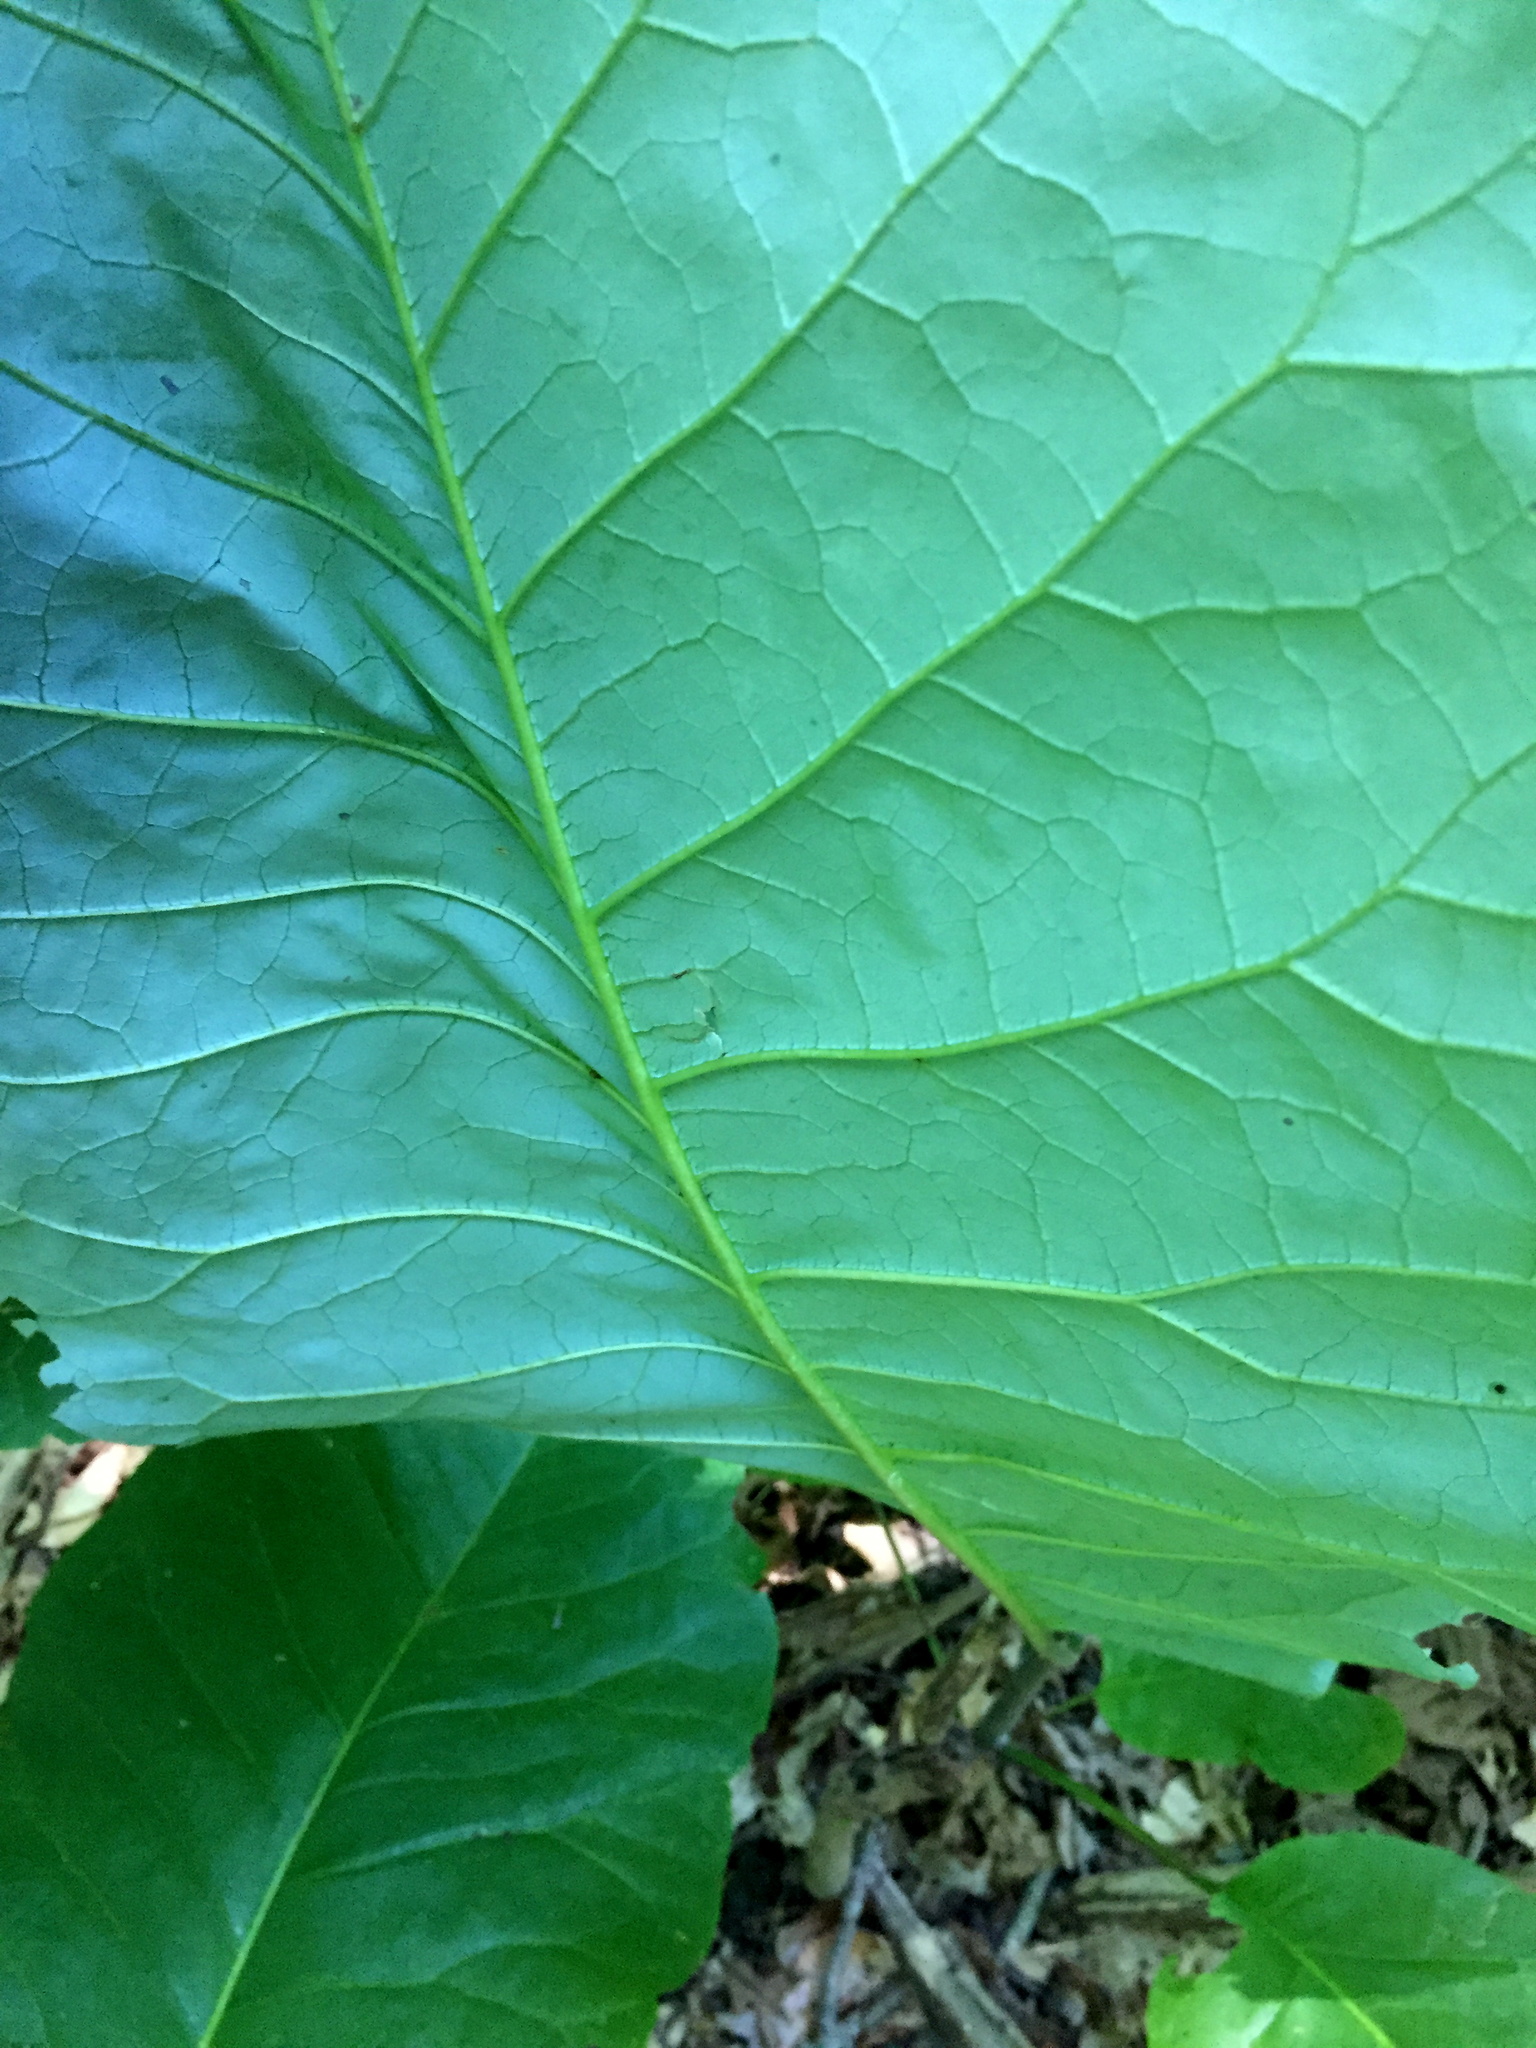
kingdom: Plantae
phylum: Tracheophyta
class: Magnoliopsida
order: Magnoliales
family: Magnoliaceae
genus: Magnolia
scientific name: Magnolia macrophylla
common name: Big-leaf magnolia
